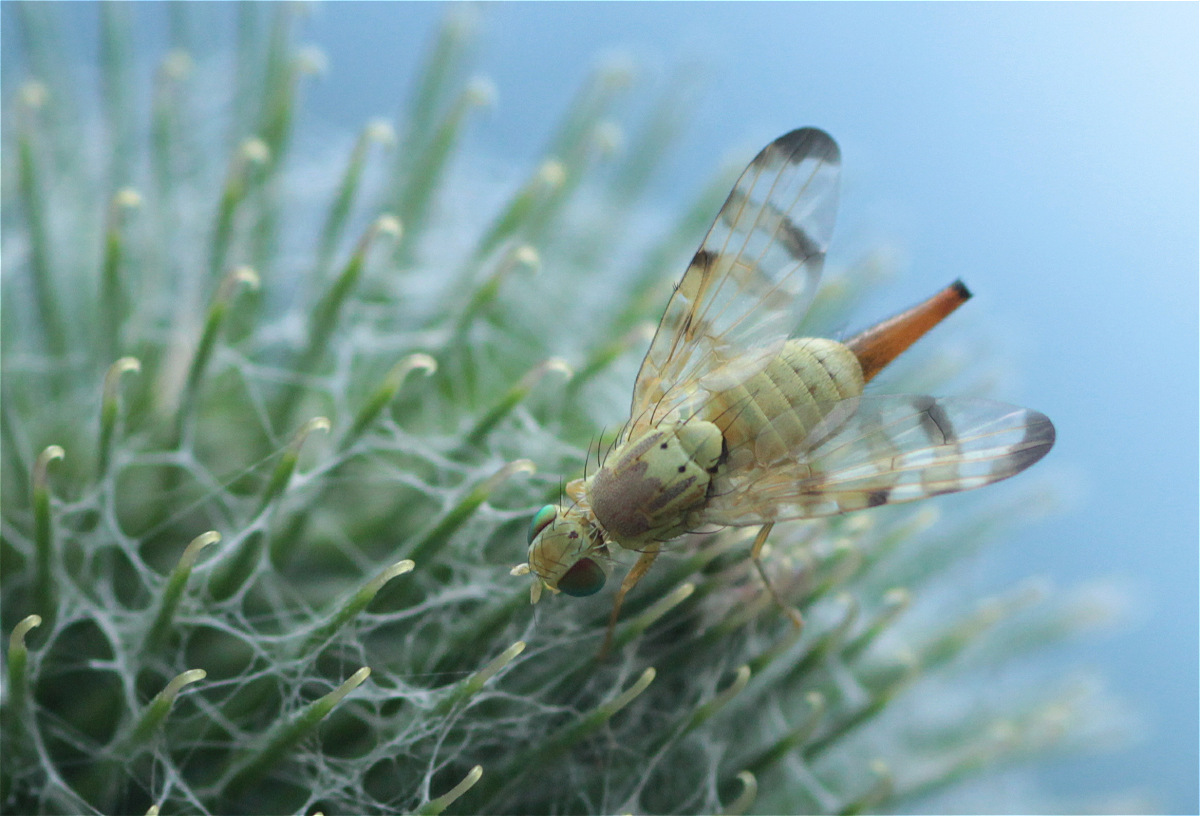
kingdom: Animalia
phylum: Arthropoda
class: Insecta
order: Diptera
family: Tephritidae
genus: Terellia
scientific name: Terellia tussilaginis
